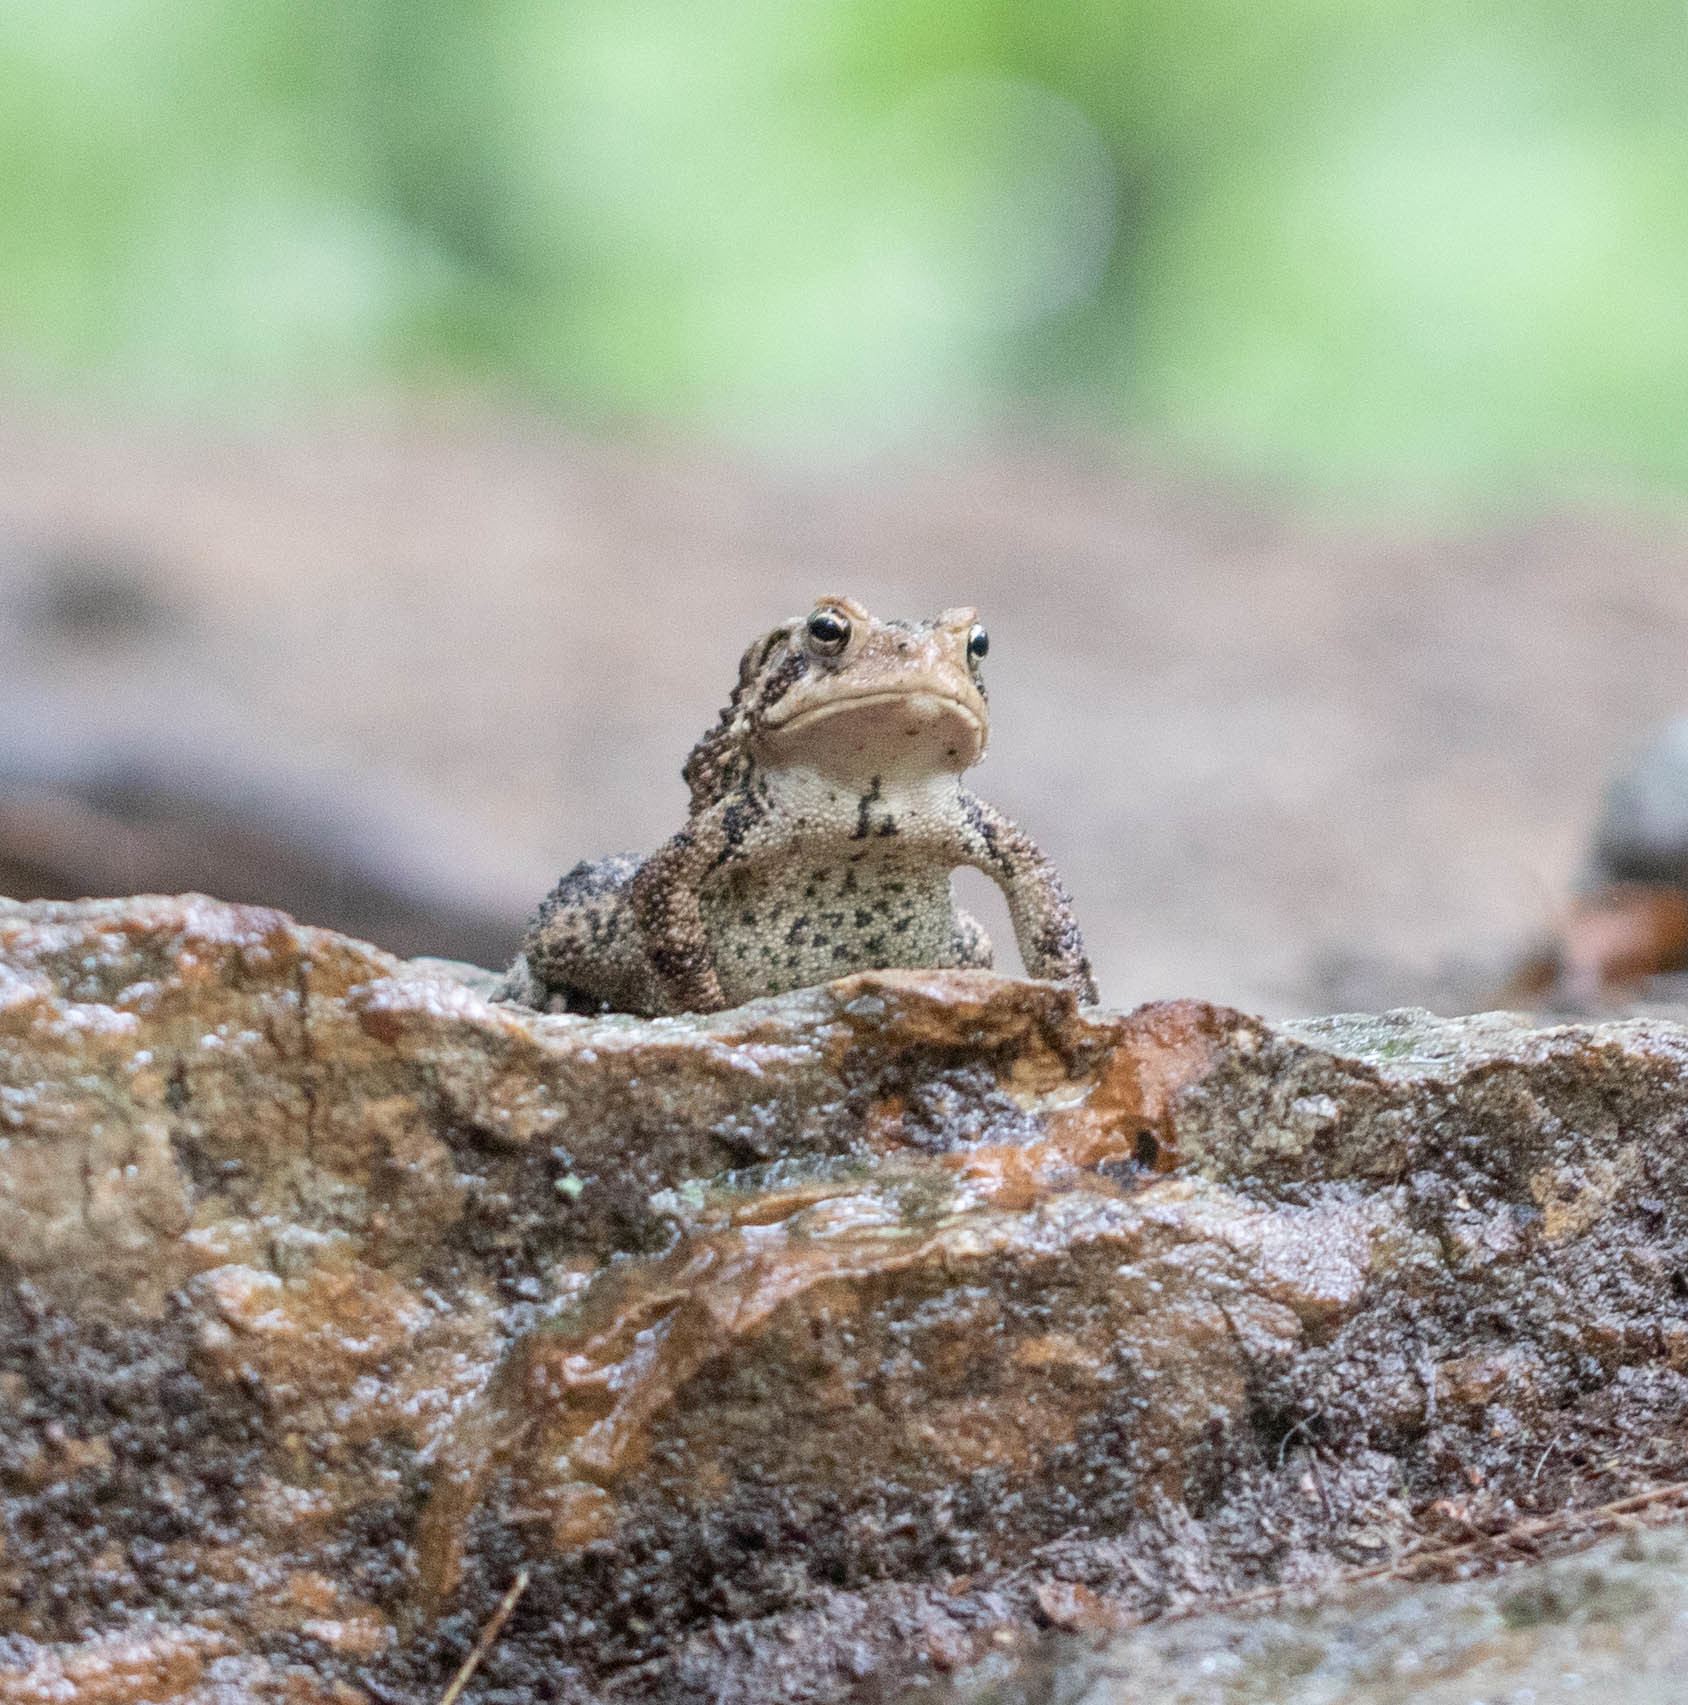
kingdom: Animalia
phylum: Chordata
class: Amphibia
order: Anura
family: Bufonidae
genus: Anaxyrus
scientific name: Anaxyrus americanus
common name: American toad
